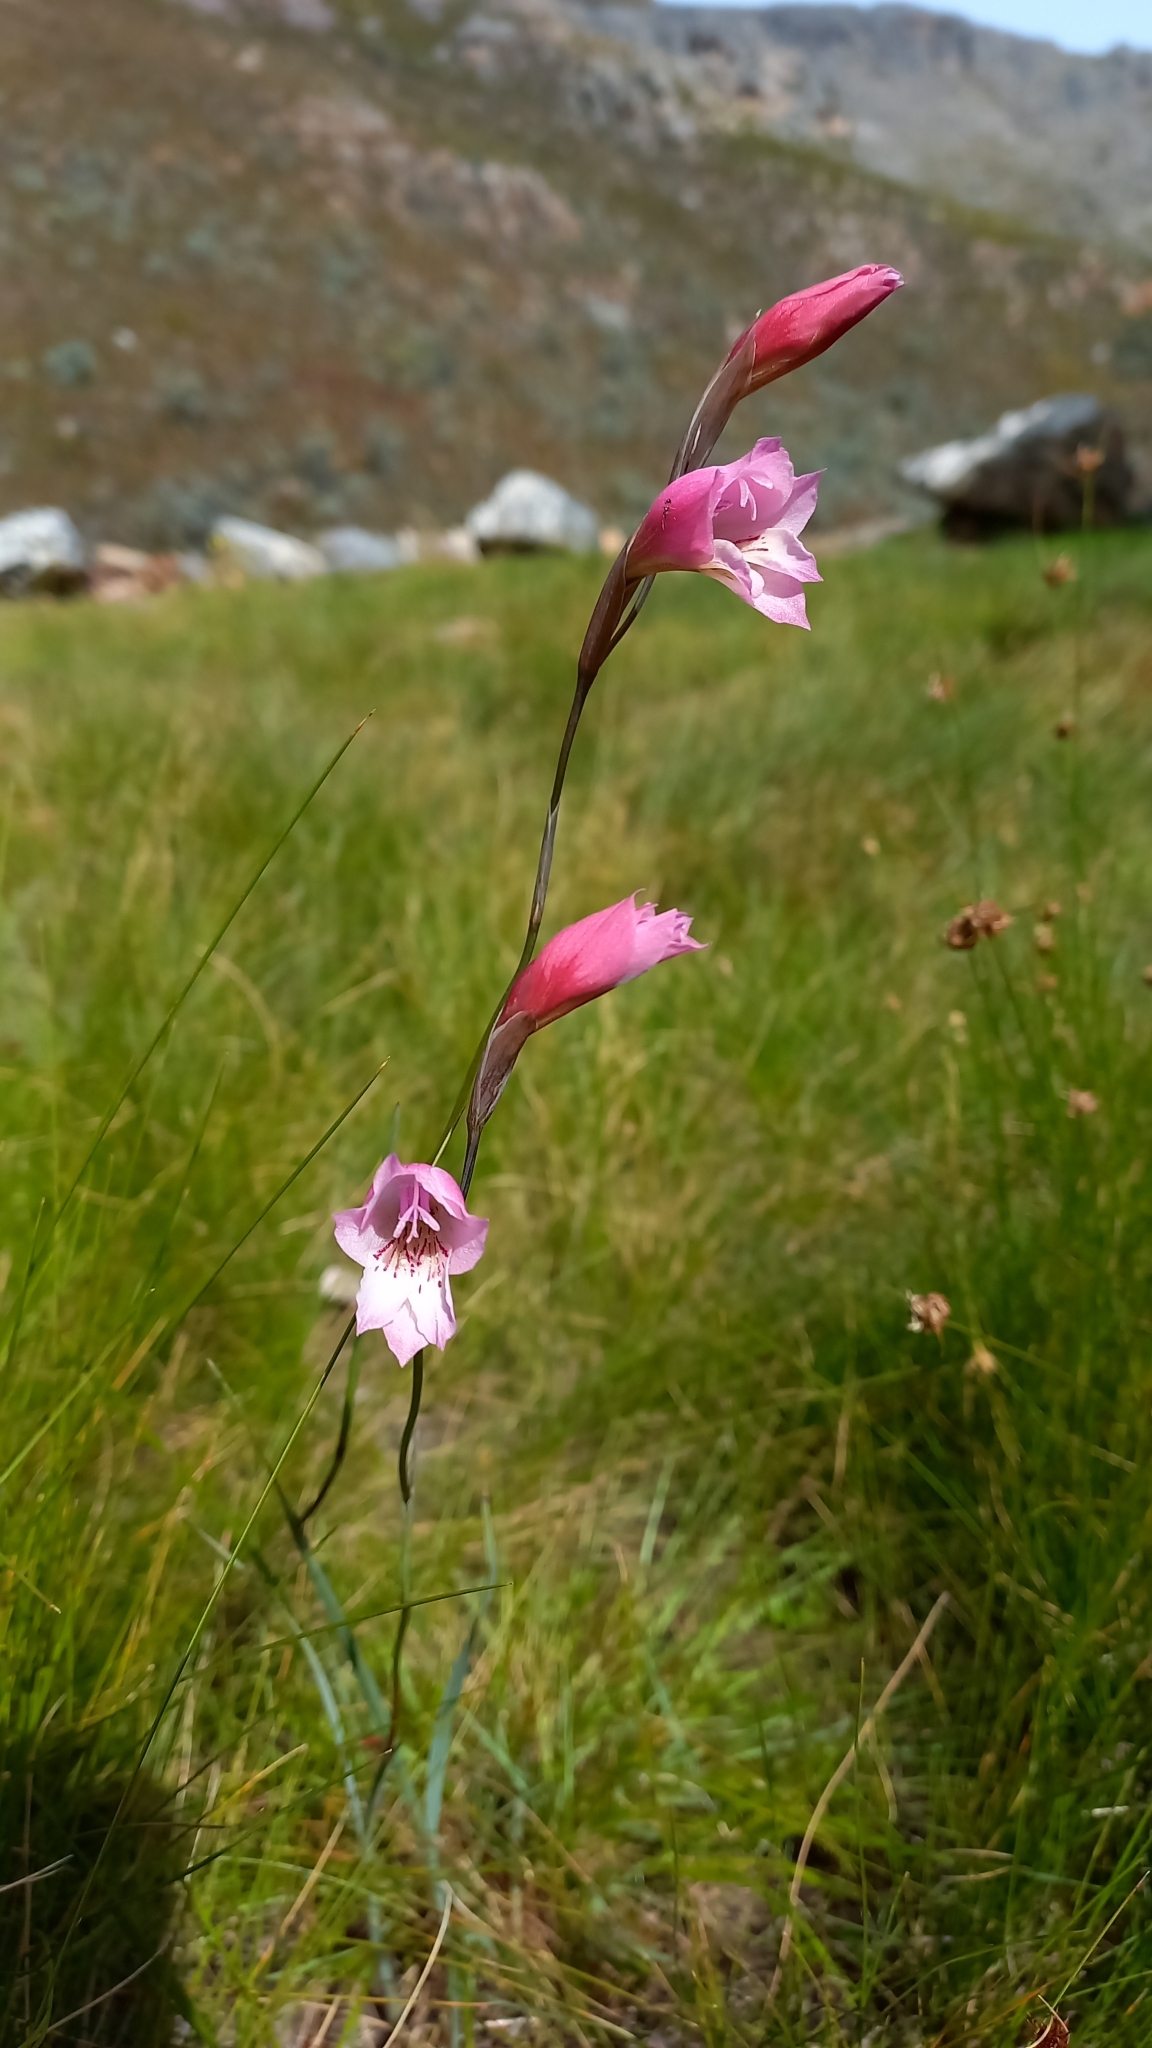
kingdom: Plantae
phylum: Tracheophyta
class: Liliopsida
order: Asparagales
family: Iridaceae
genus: Gladiolus
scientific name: Gladiolus hirsutus
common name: Small pink afrikaner
